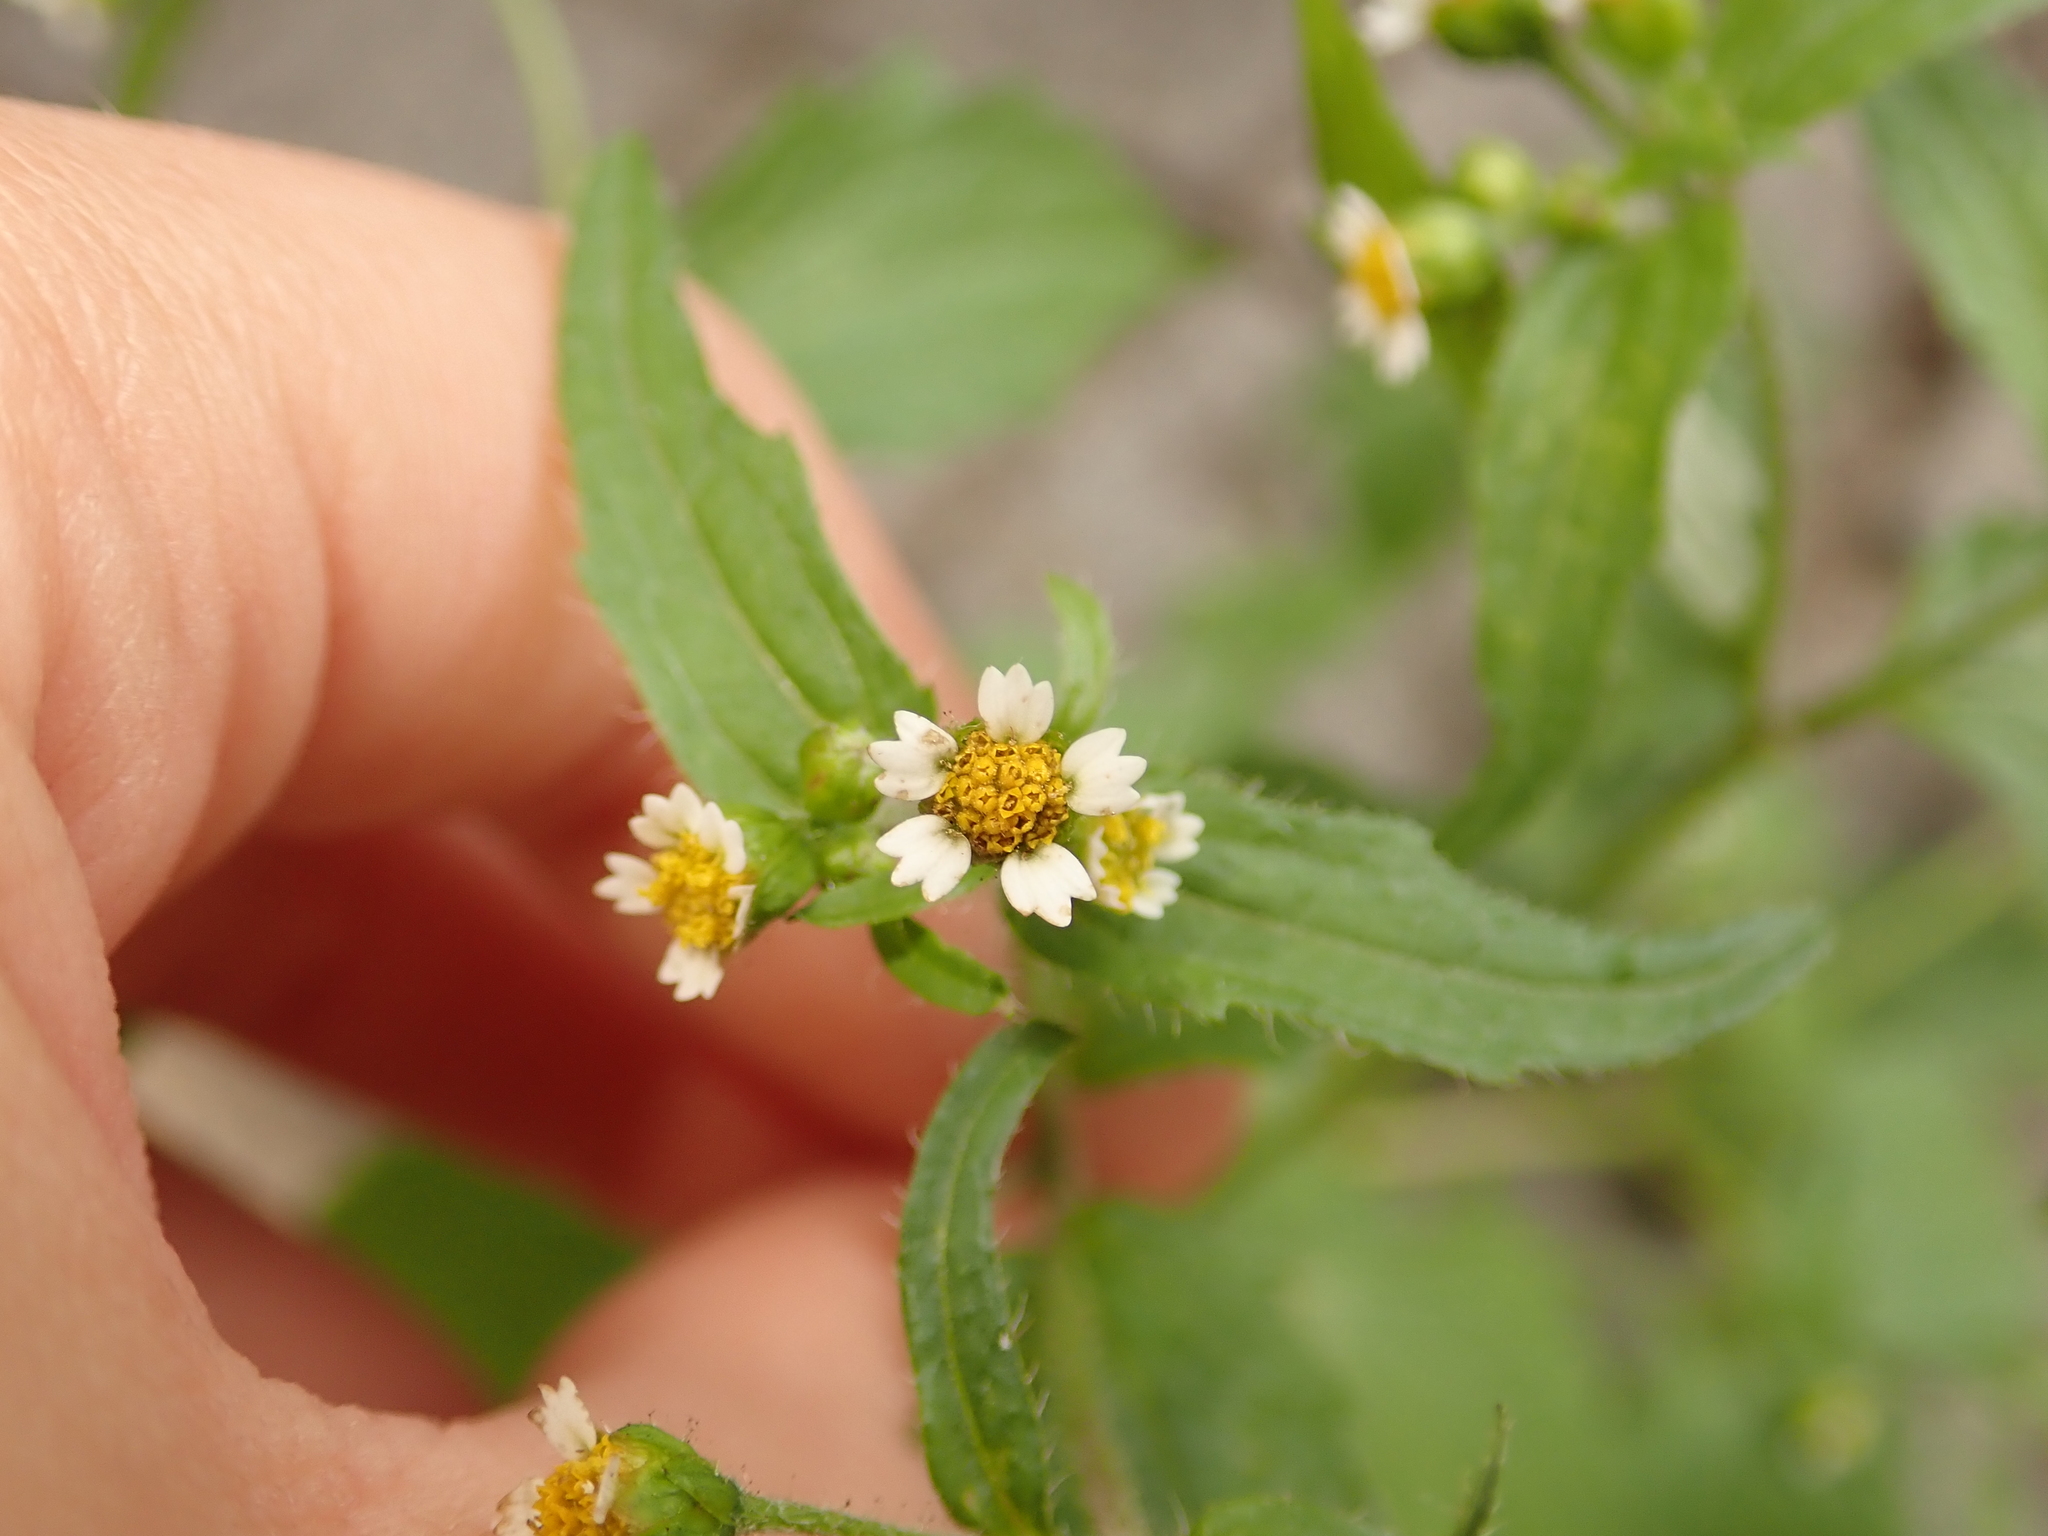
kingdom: Plantae
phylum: Tracheophyta
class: Magnoliopsida
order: Asterales
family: Asteraceae
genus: Galinsoga
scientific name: Galinsoga quadriradiata
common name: Shaggy soldier
